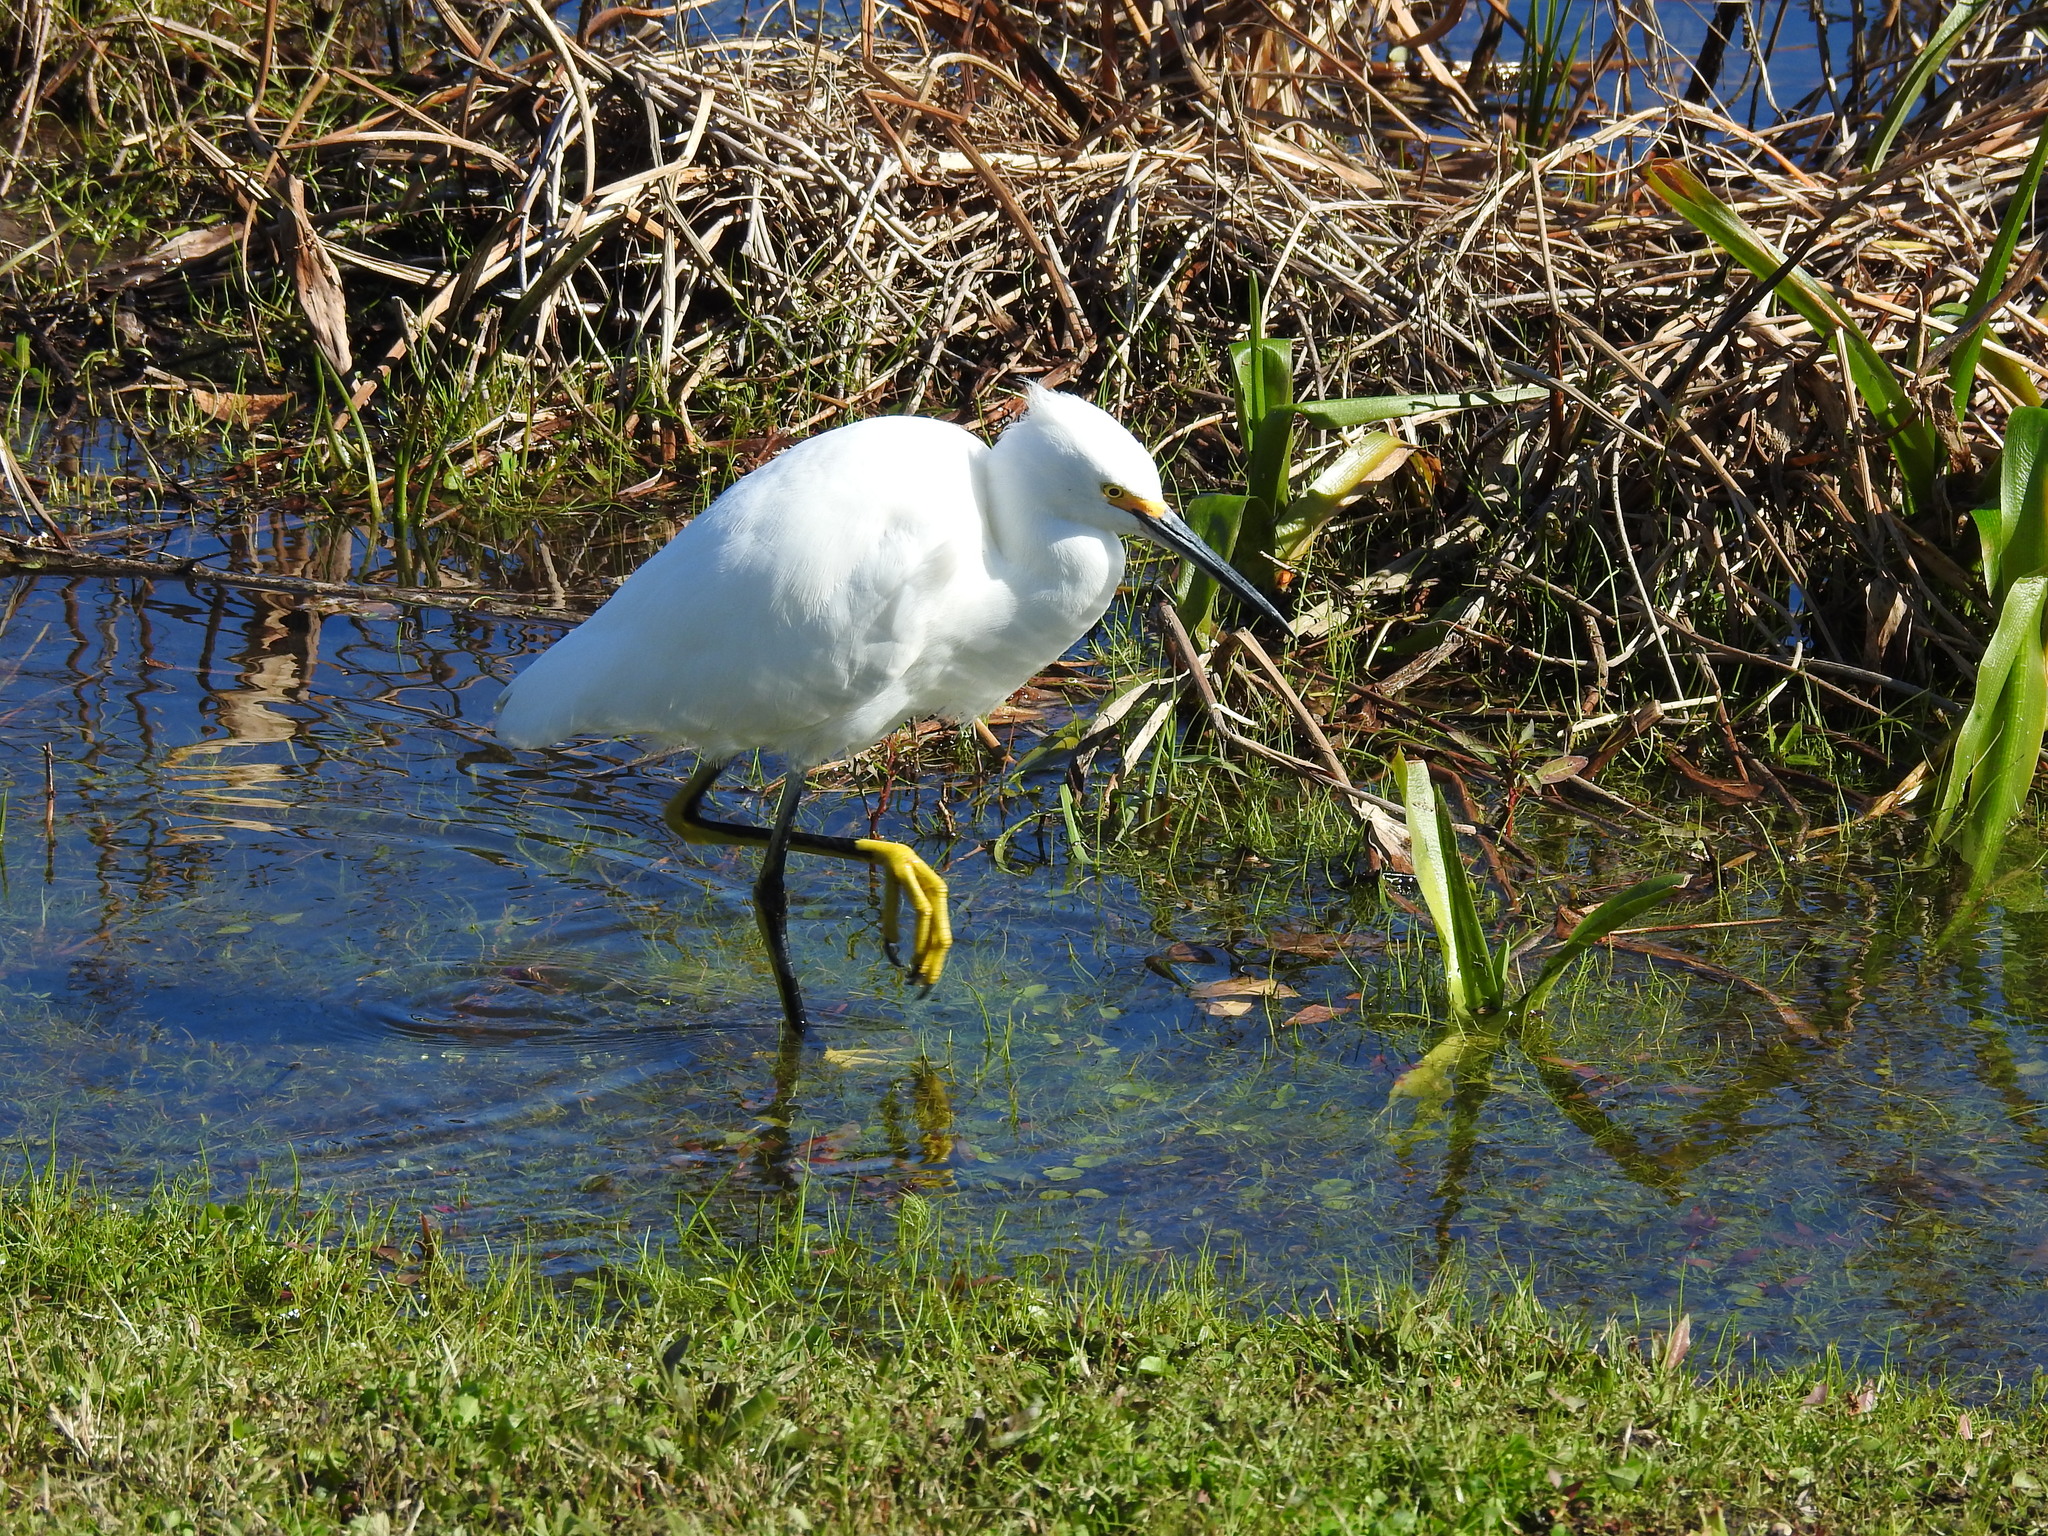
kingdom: Animalia
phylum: Chordata
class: Aves
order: Pelecaniformes
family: Ardeidae
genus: Egretta
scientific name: Egretta thula
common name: Snowy egret
